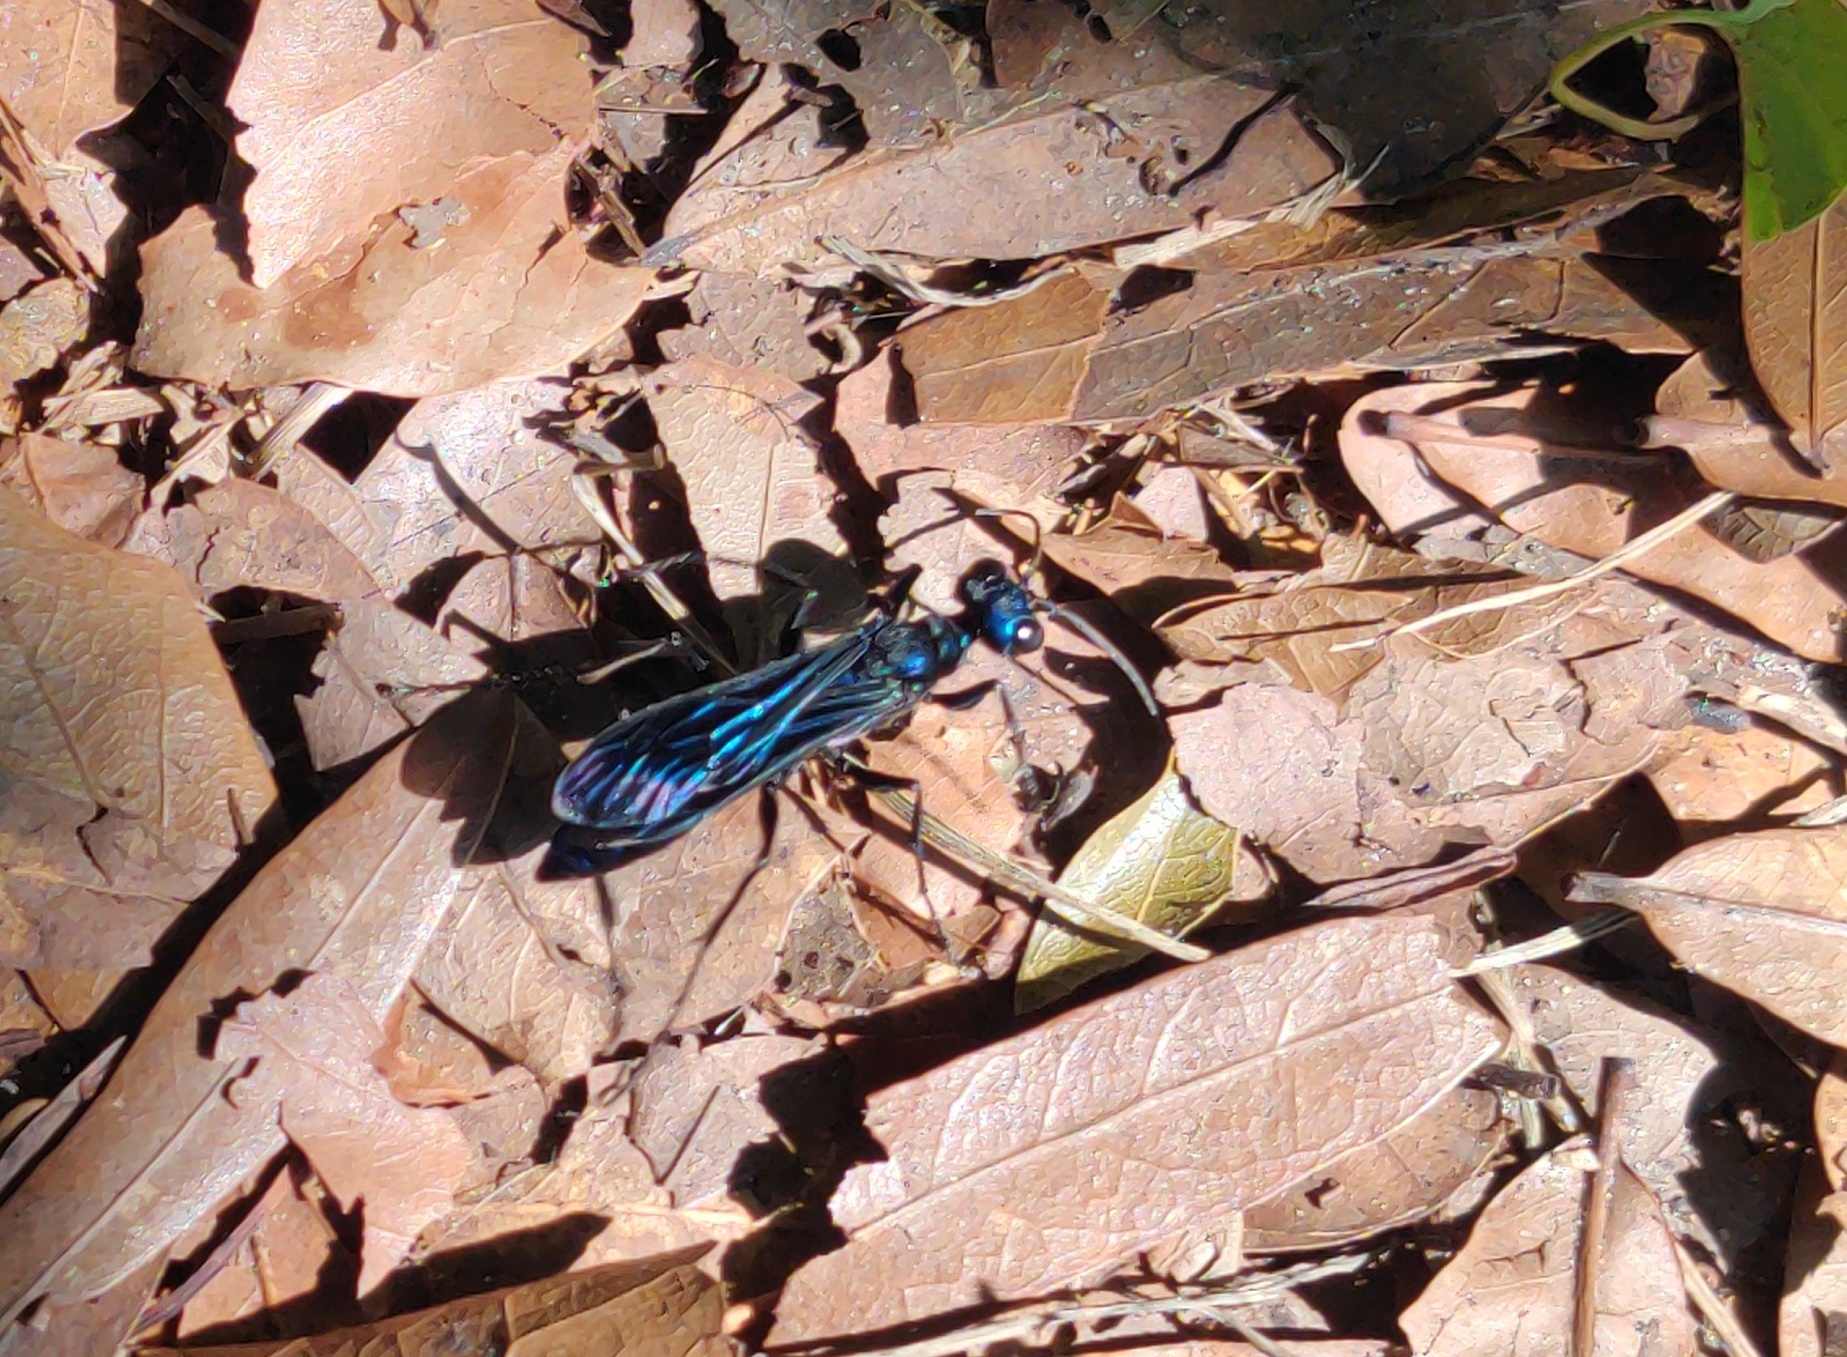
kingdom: Animalia
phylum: Arthropoda
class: Insecta
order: Hymenoptera
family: Sphecidae
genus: Chlorion
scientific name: Chlorion aerarium
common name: Steel-blue cricket hunter
